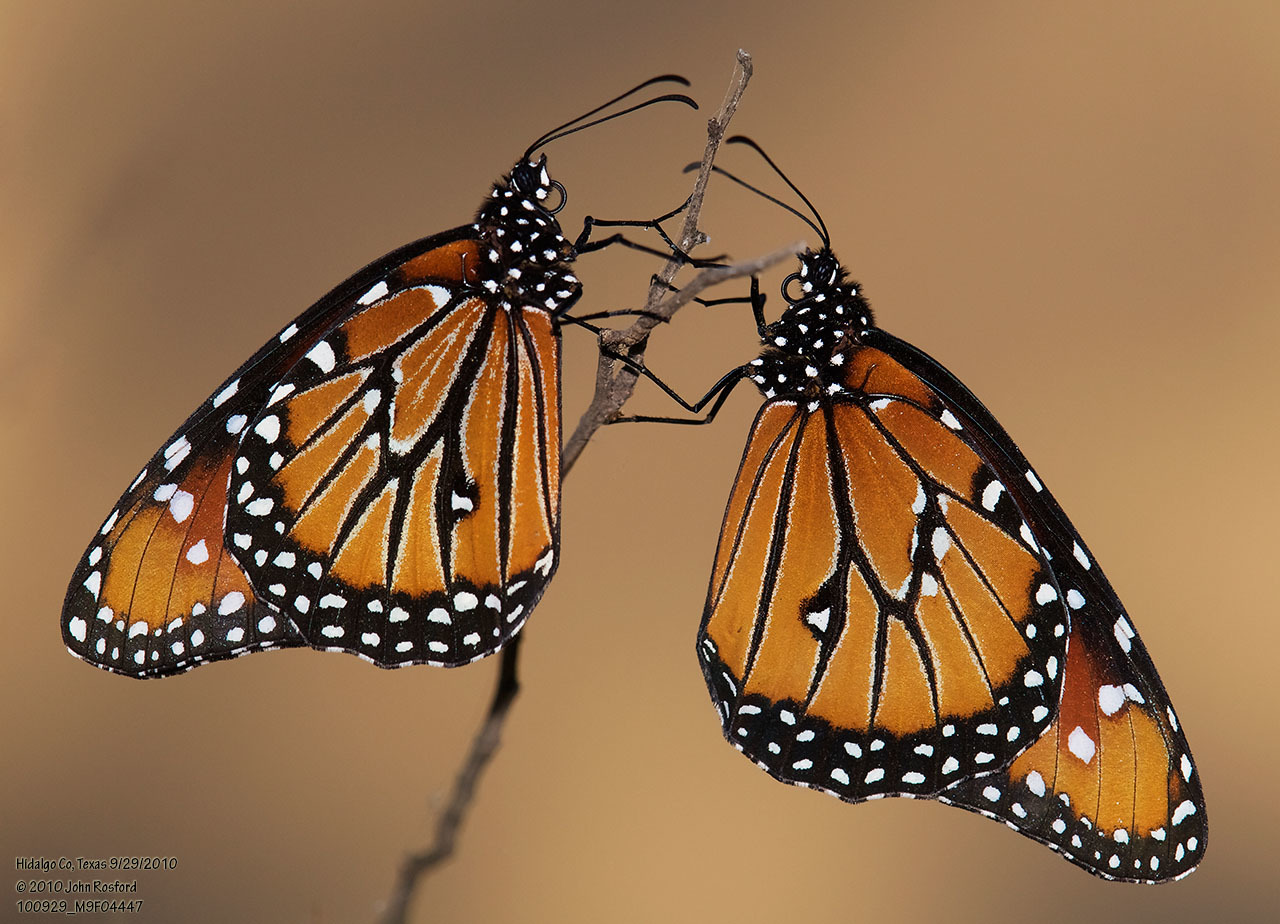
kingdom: Animalia
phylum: Arthropoda
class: Insecta
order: Lepidoptera
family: Nymphalidae
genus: Danaus
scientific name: Danaus gilippus
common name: Queen
